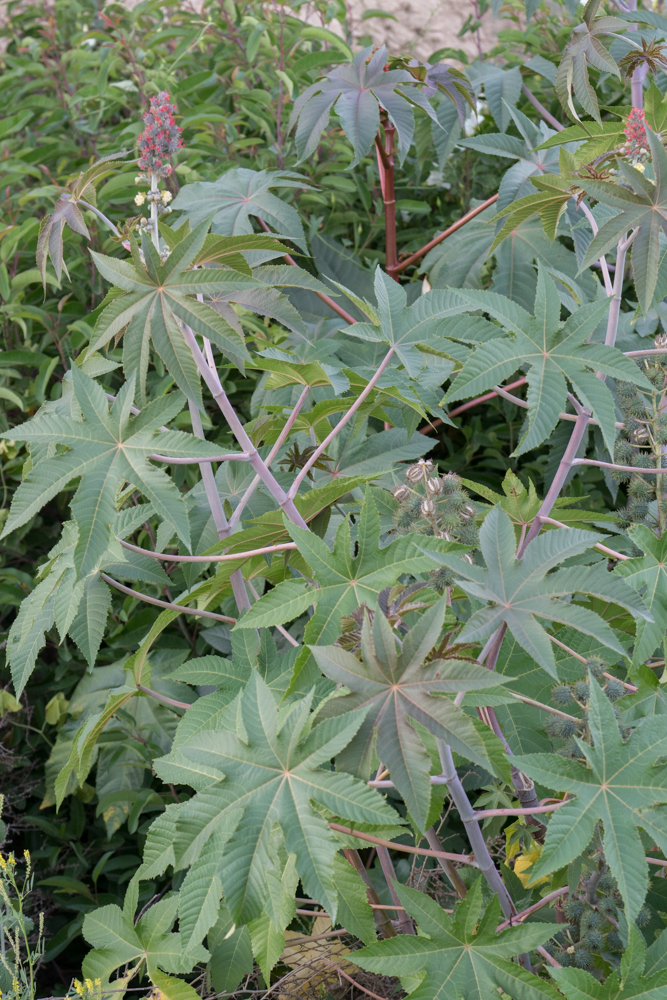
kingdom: Plantae
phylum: Tracheophyta
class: Magnoliopsida
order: Malpighiales
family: Euphorbiaceae
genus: Ricinus
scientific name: Ricinus communis
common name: Castor-oil-plant
